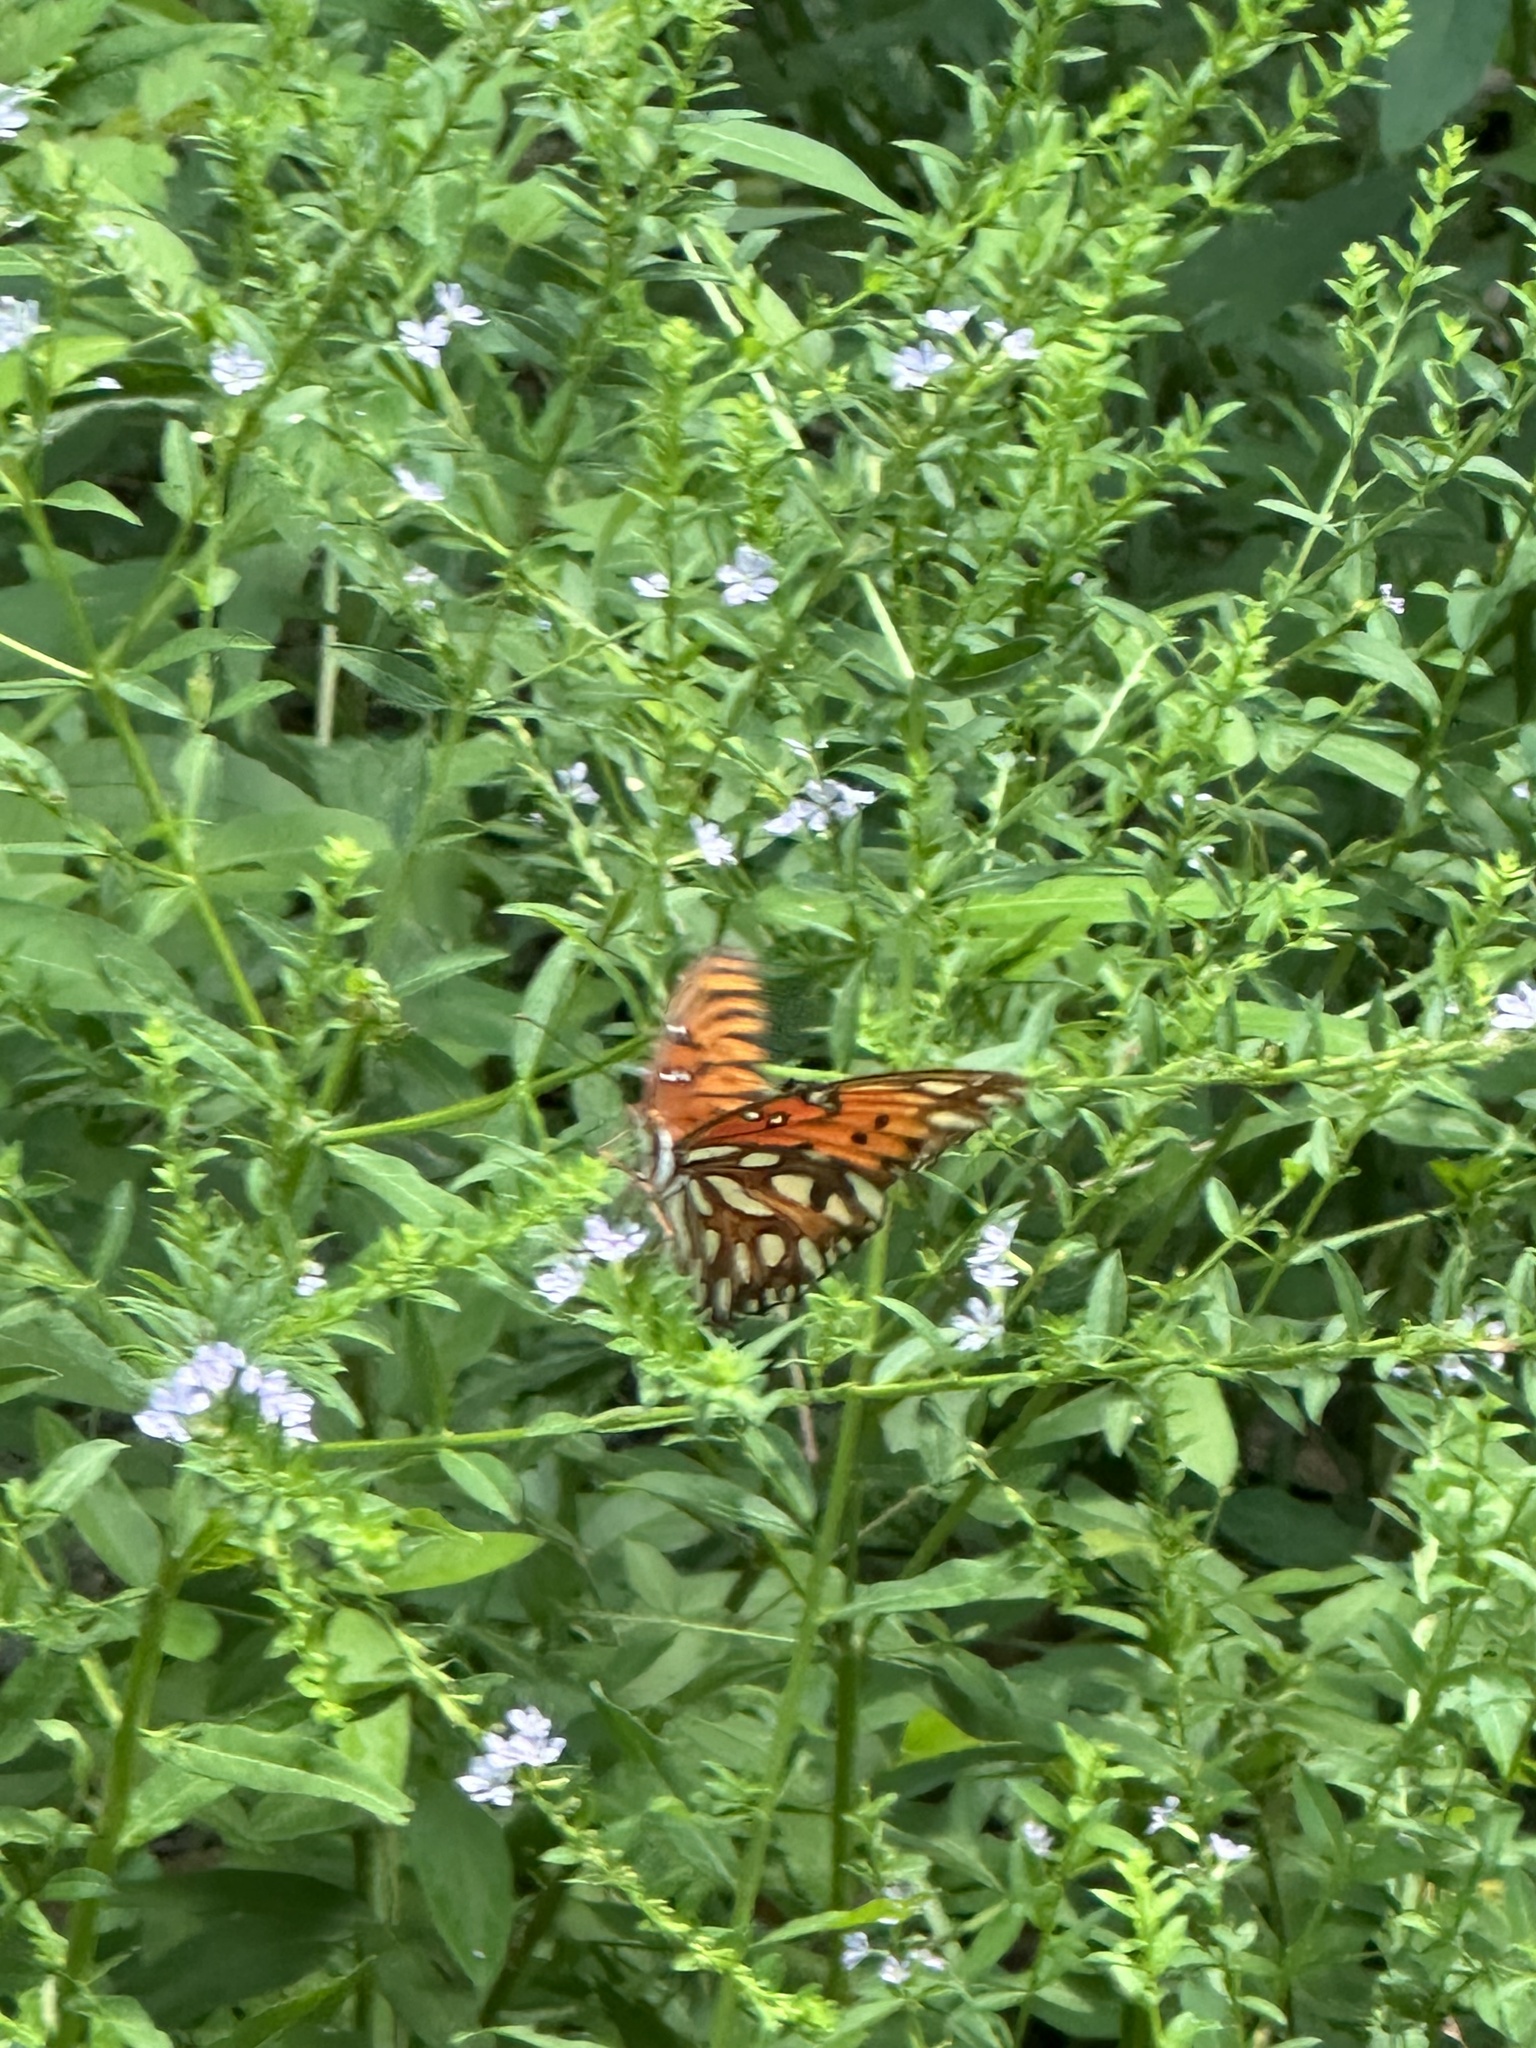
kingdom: Animalia
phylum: Arthropoda
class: Insecta
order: Lepidoptera
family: Nymphalidae
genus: Dione
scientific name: Dione vanillae
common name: Gulf fritillary
